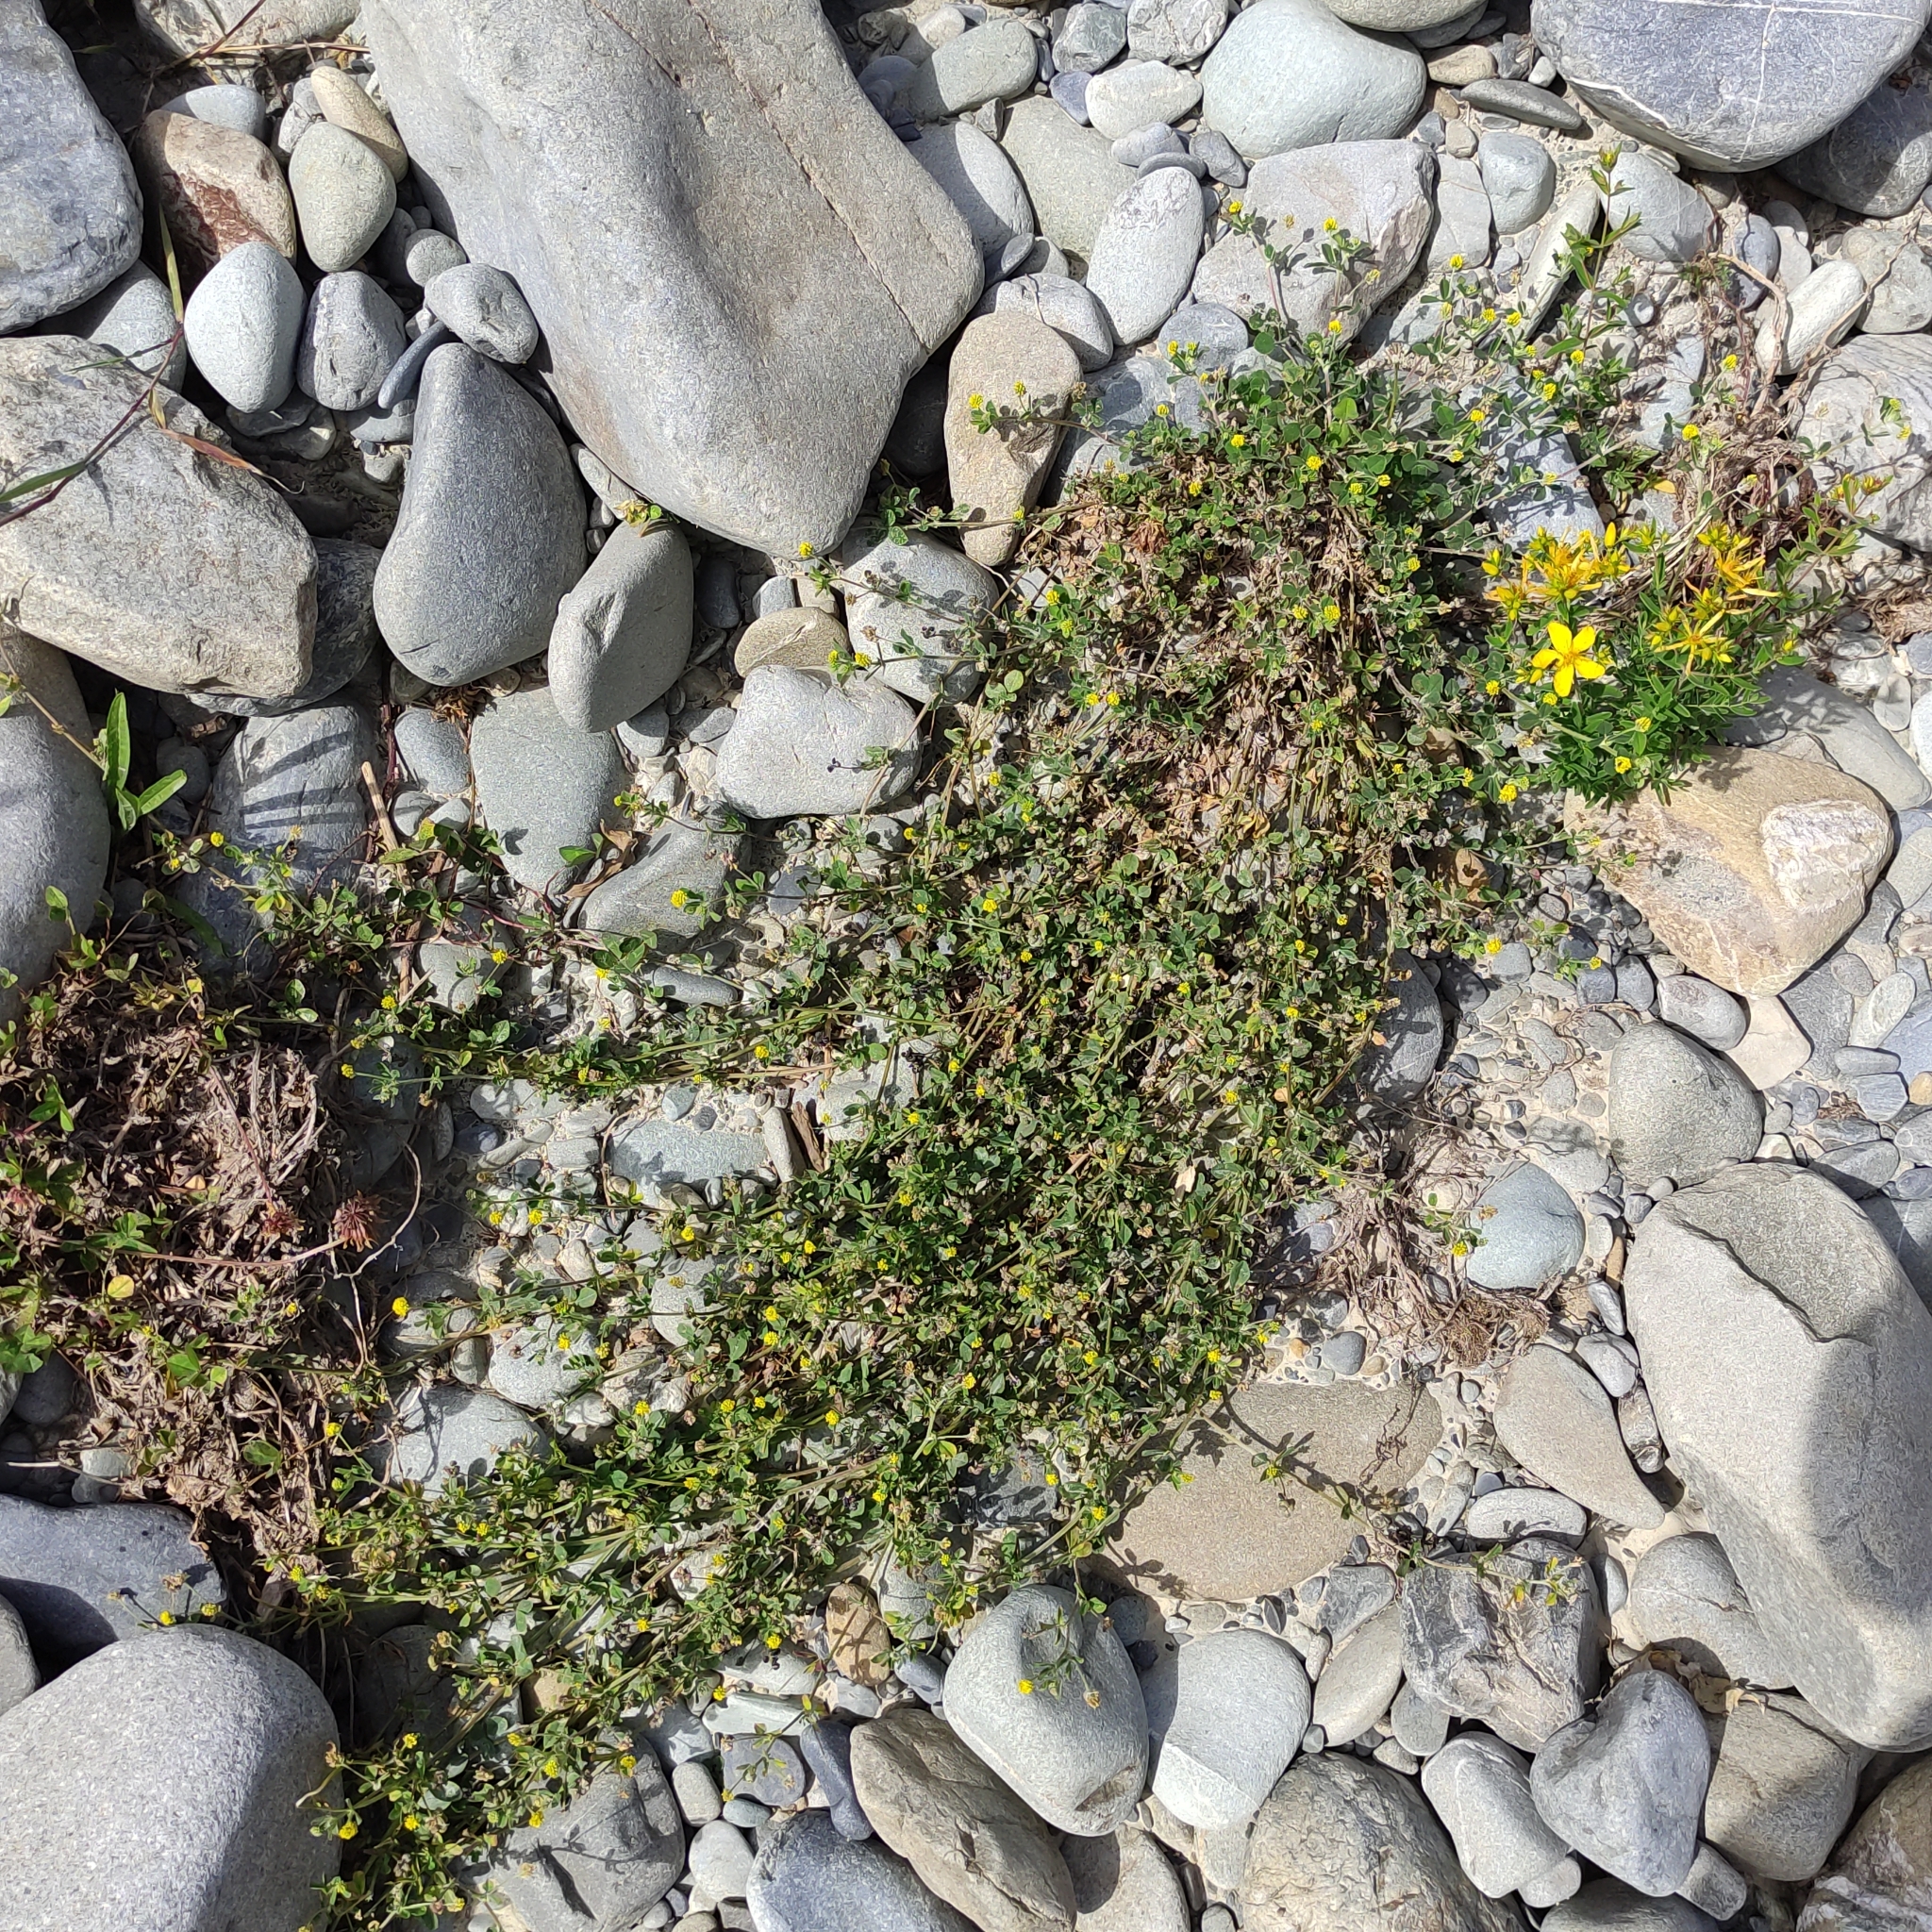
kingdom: Plantae
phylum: Tracheophyta
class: Magnoliopsida
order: Fabales
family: Fabaceae
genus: Medicago
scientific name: Medicago lupulina
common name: Black medick
